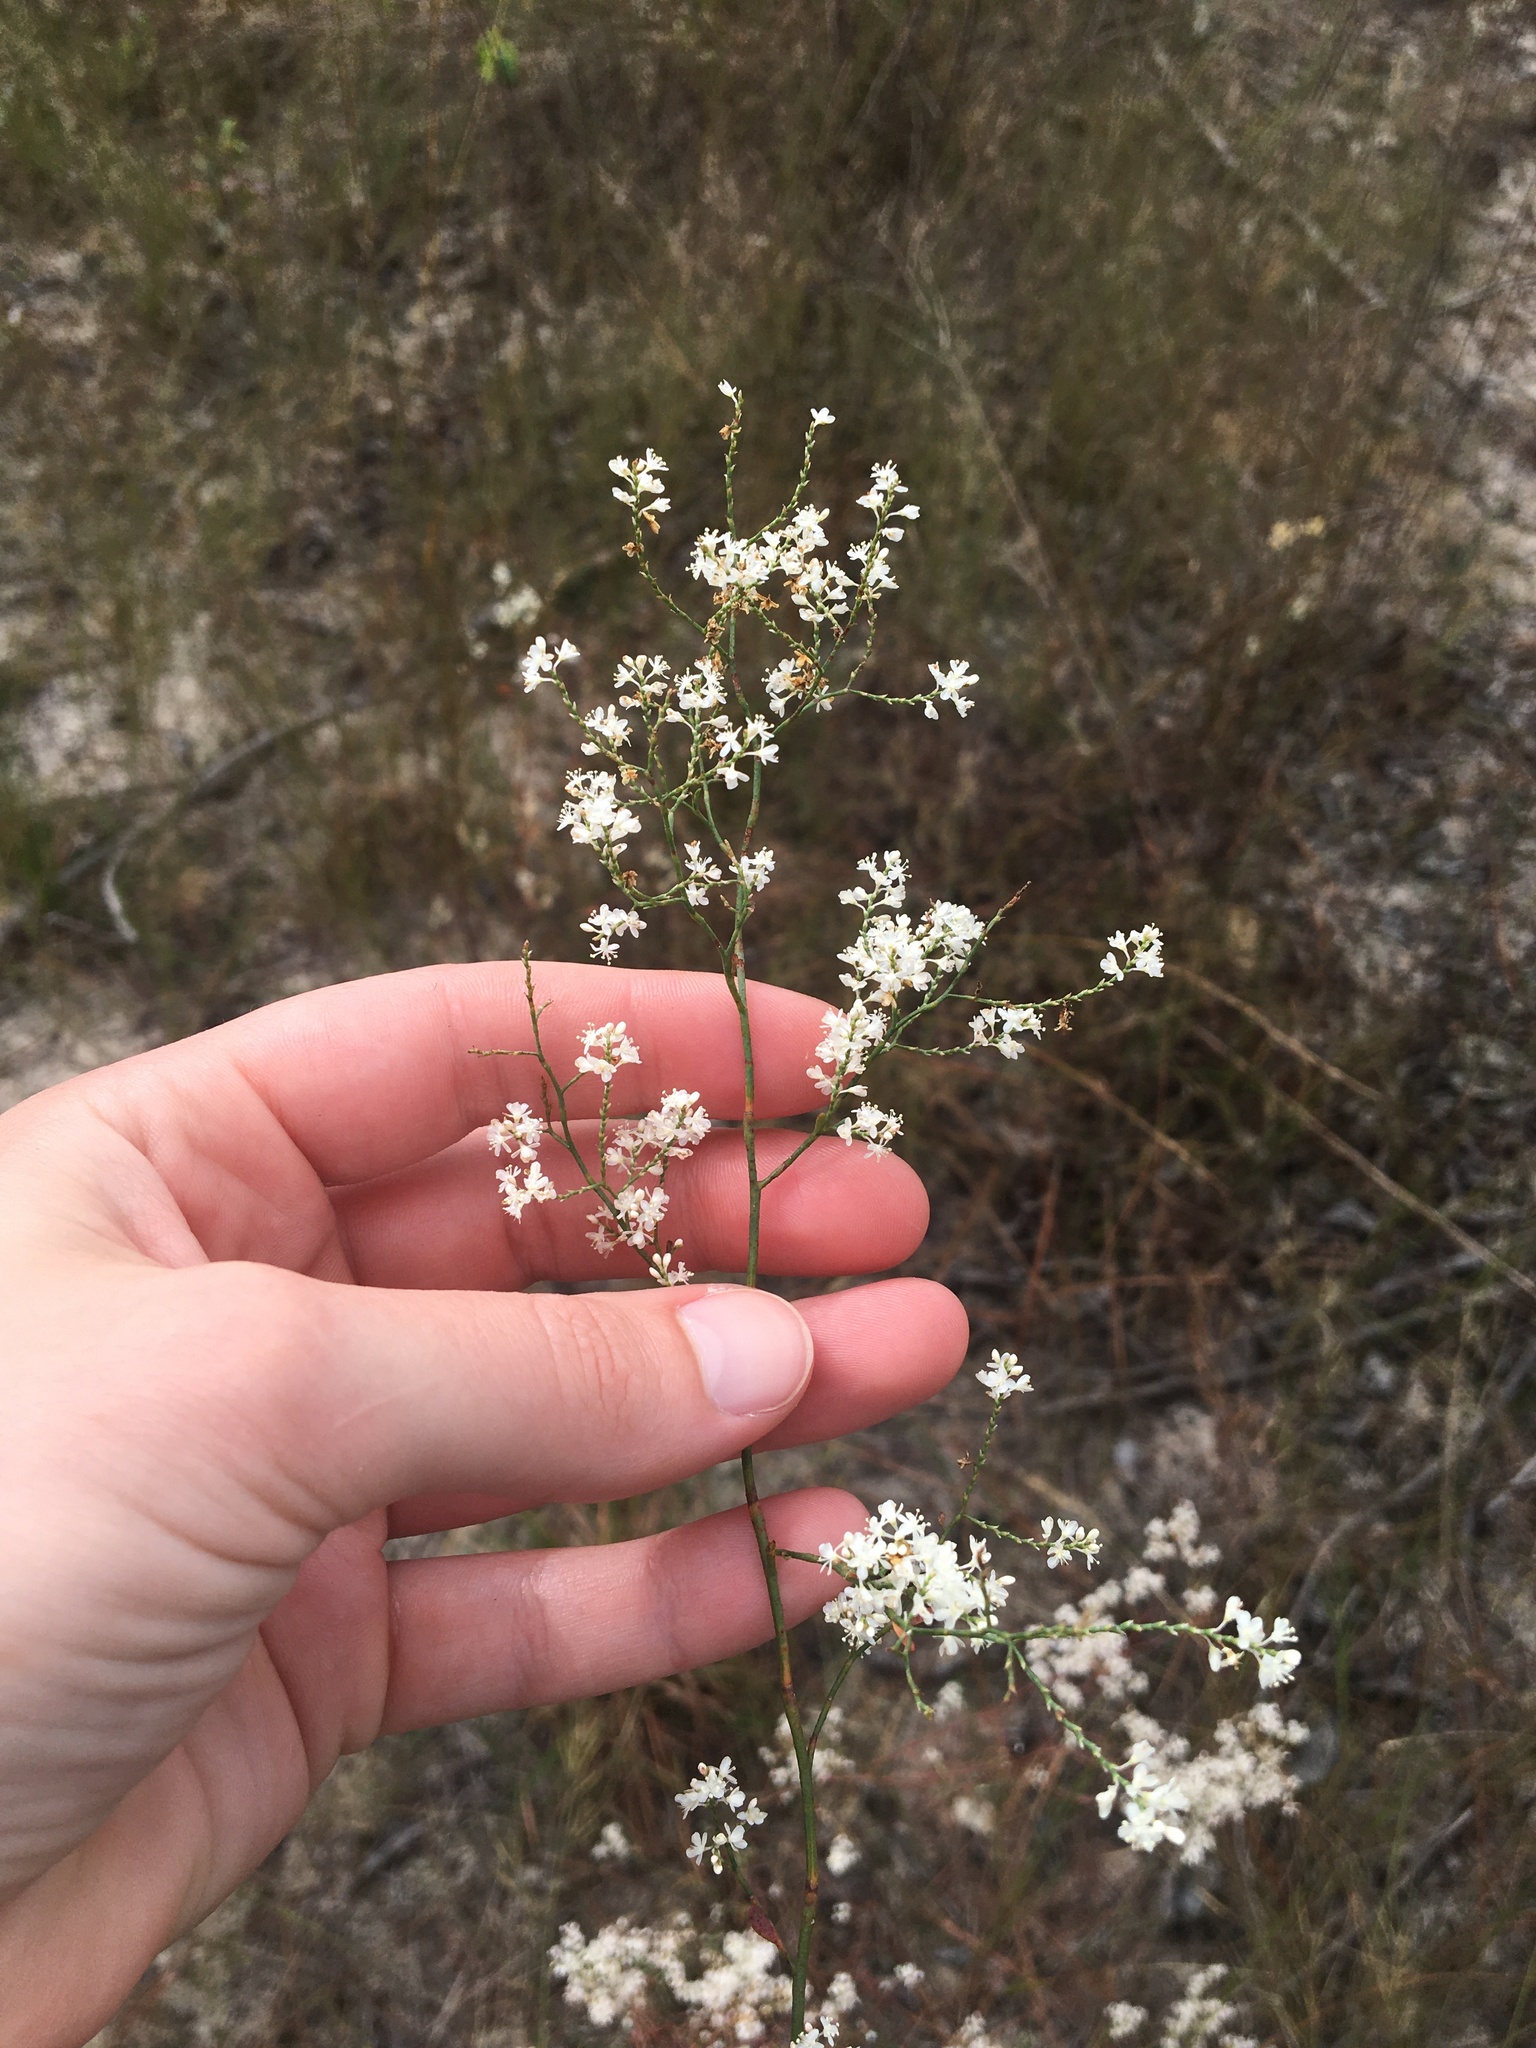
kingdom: Plantae
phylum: Tracheophyta
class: Magnoliopsida
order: Caryophyllales
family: Polygonaceae
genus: Polygonella
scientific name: Polygonella americana
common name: Southern jointweed
